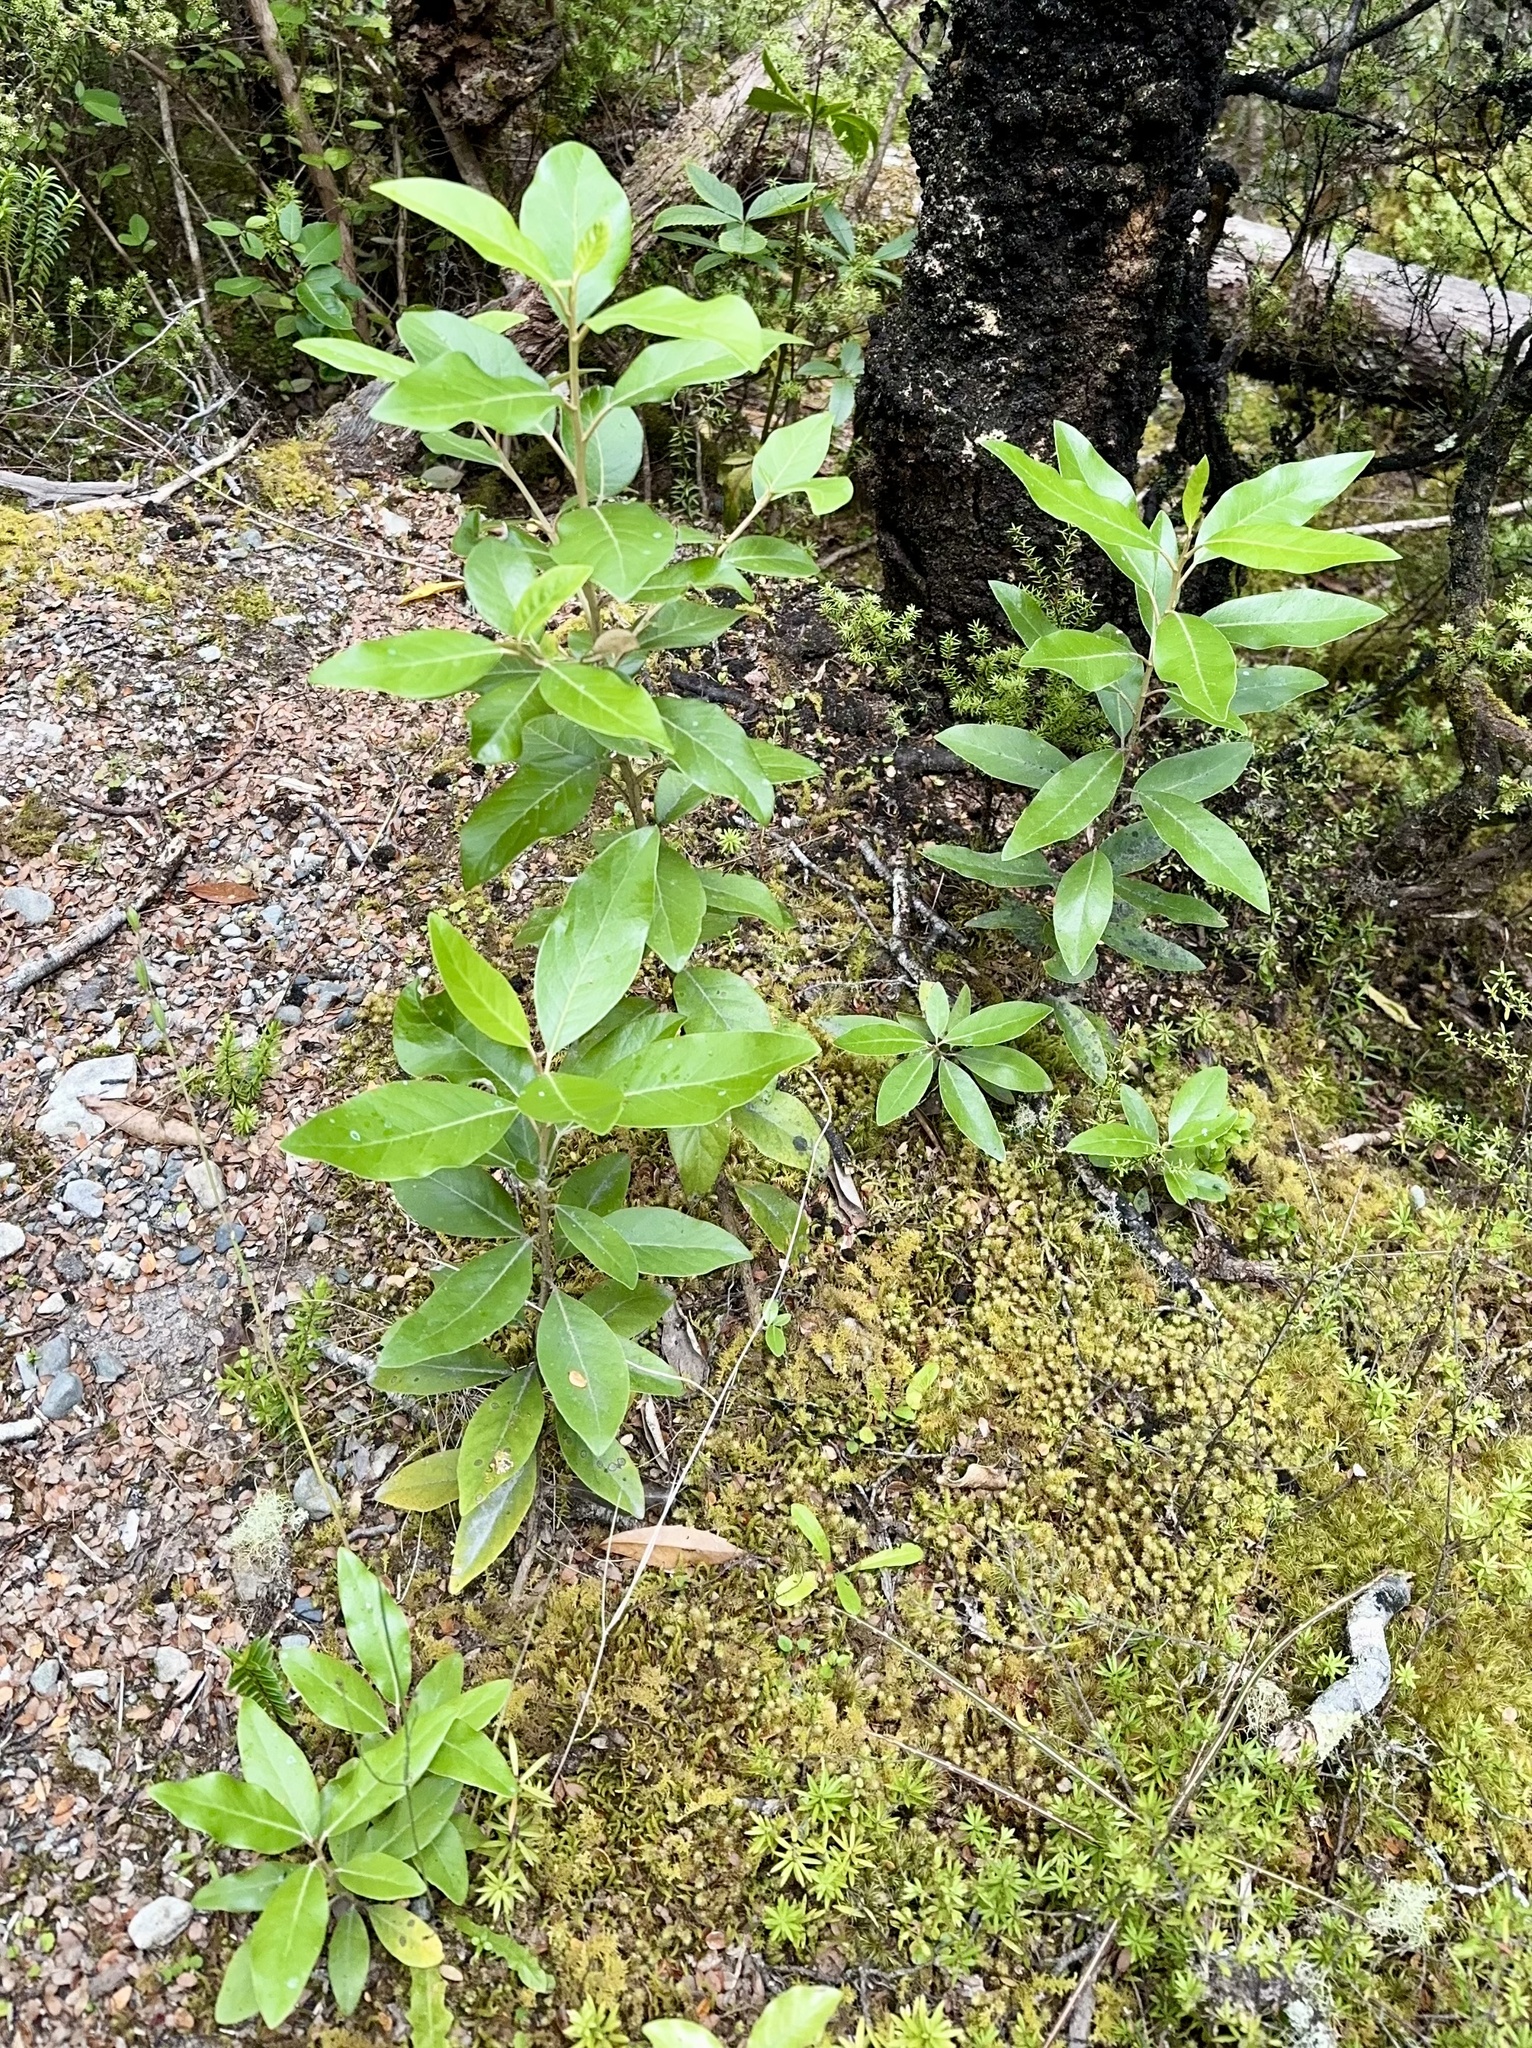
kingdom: Plantae
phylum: Tracheophyta
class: Magnoliopsida
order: Asterales
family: Asteraceae
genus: Olearia
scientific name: Olearia avicenniifolia
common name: Mangrove-leaf daisybush
